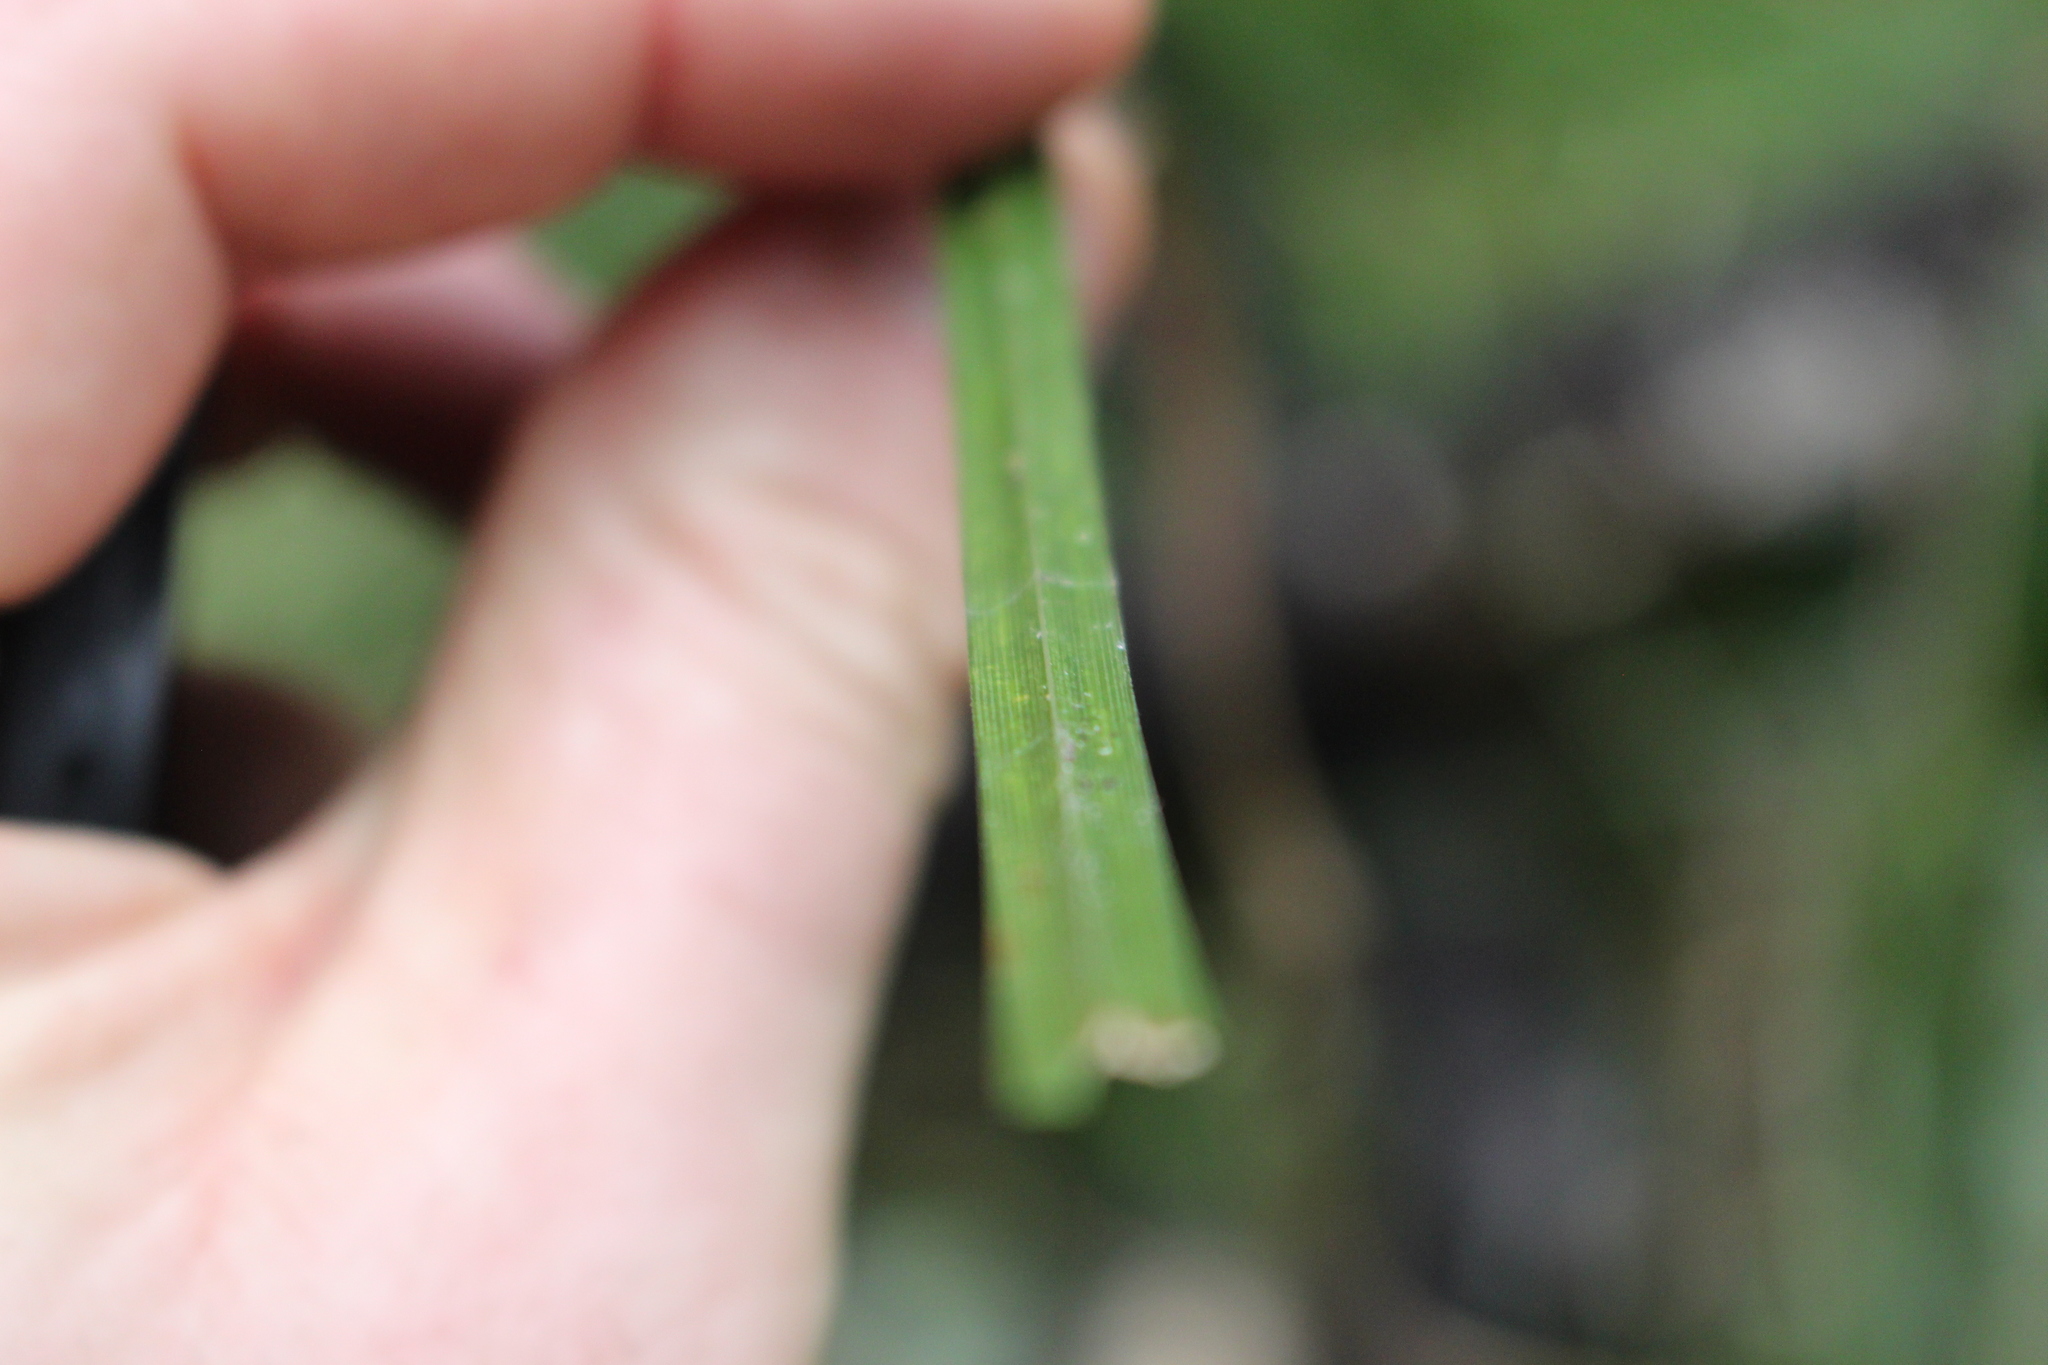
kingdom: Plantae
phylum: Tracheophyta
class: Liliopsida
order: Poales
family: Cyperaceae
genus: Carex
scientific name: Carex corynoidea
